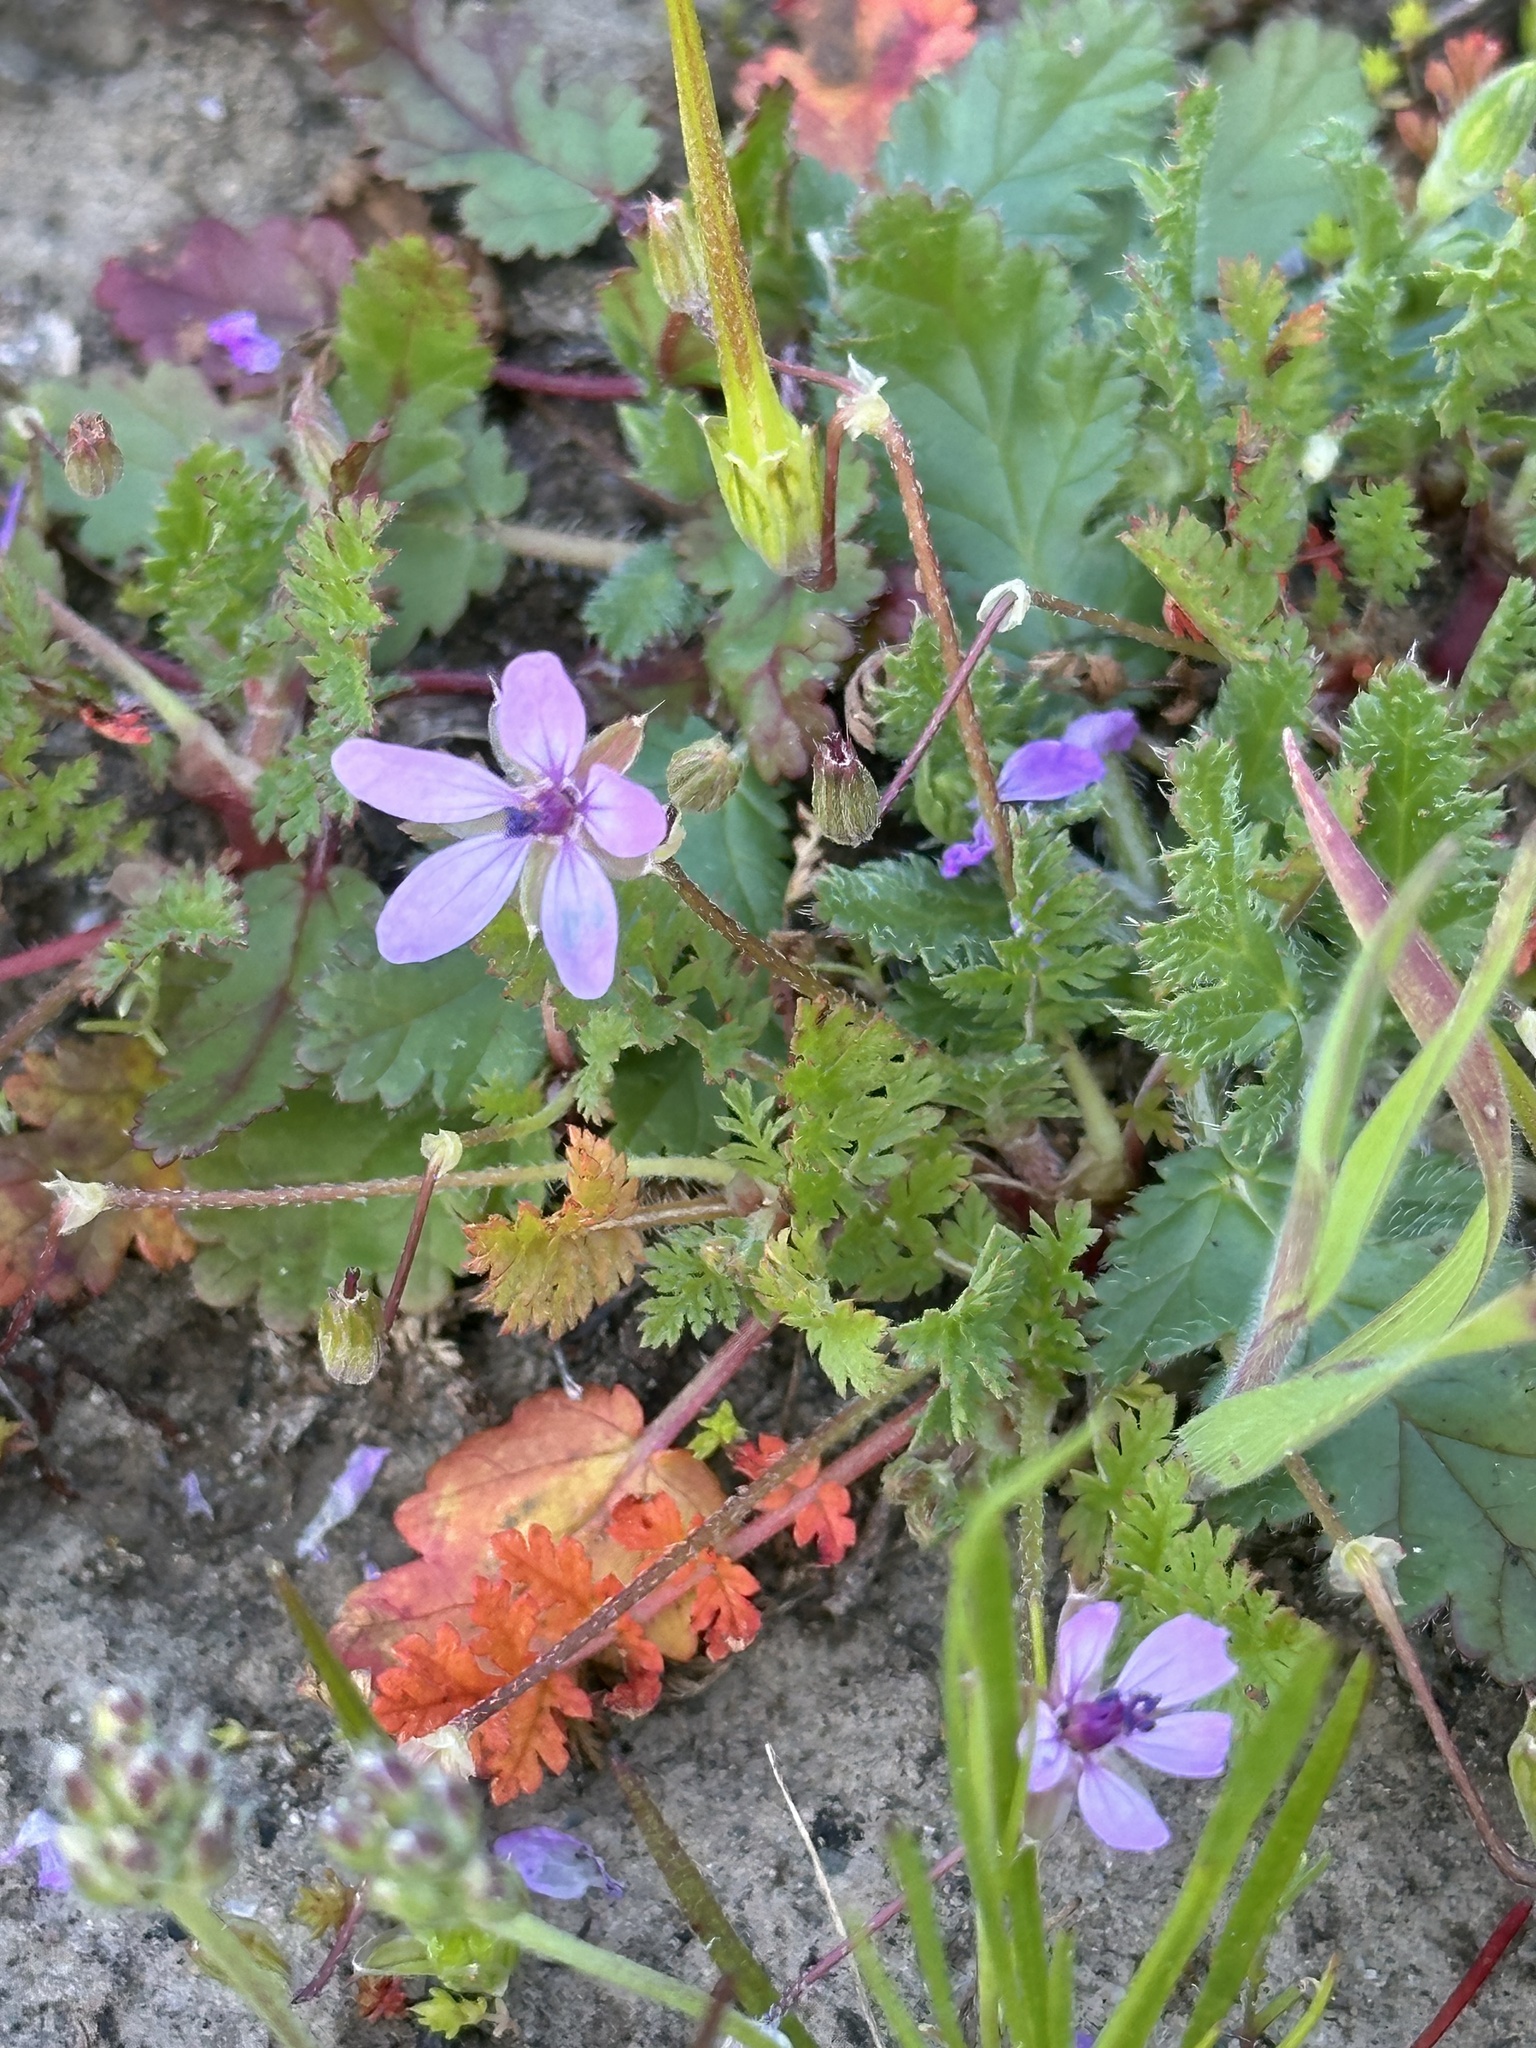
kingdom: Plantae
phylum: Tracheophyta
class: Magnoliopsida
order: Geraniales
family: Geraniaceae
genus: Erodium
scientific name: Erodium cicutarium
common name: Common stork's-bill
